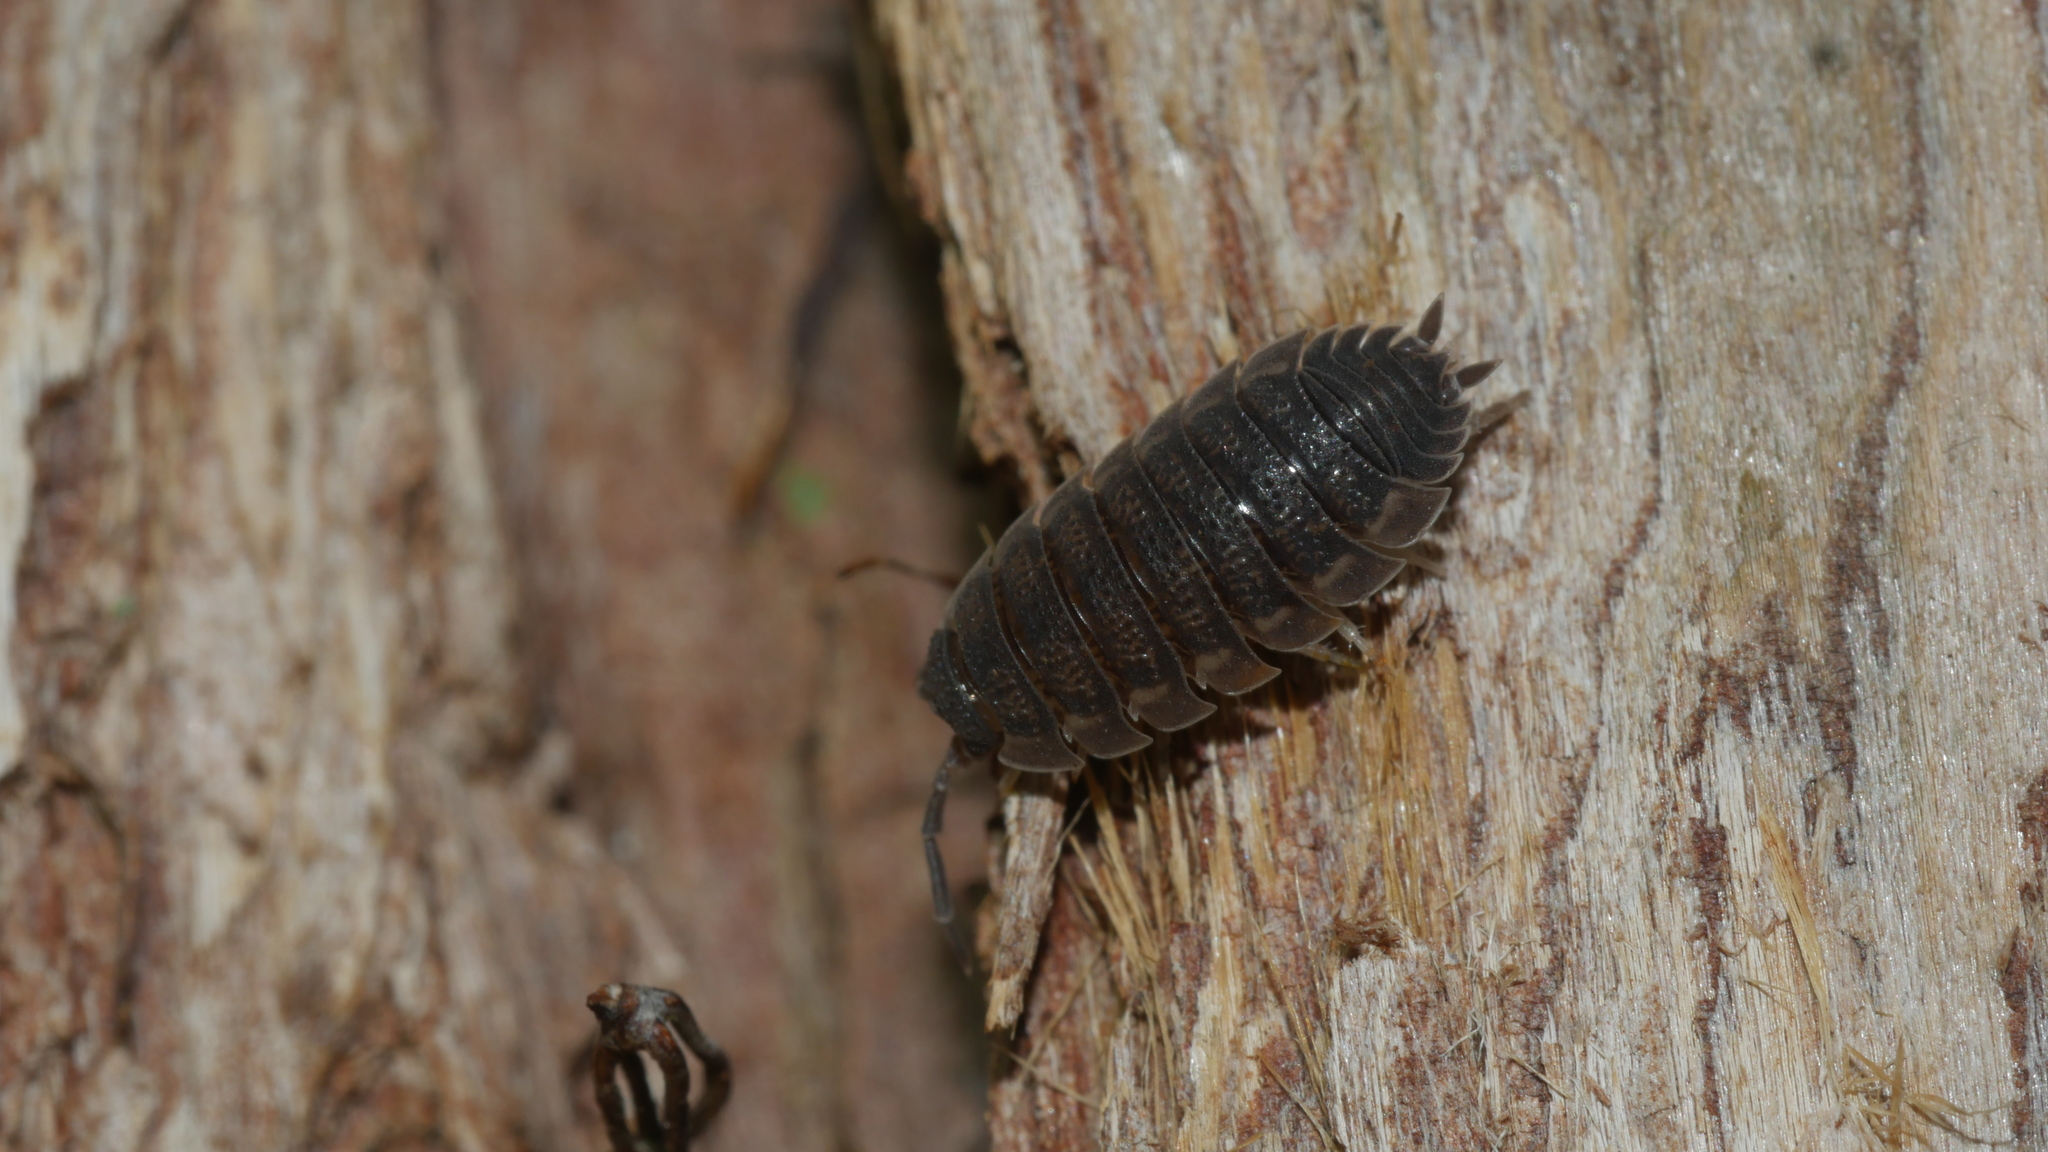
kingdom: Animalia
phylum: Arthropoda
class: Malacostraca
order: Isopoda
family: Porcellionidae
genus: Porcellio
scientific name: Porcellio scaber
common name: Common rough woodlouse
